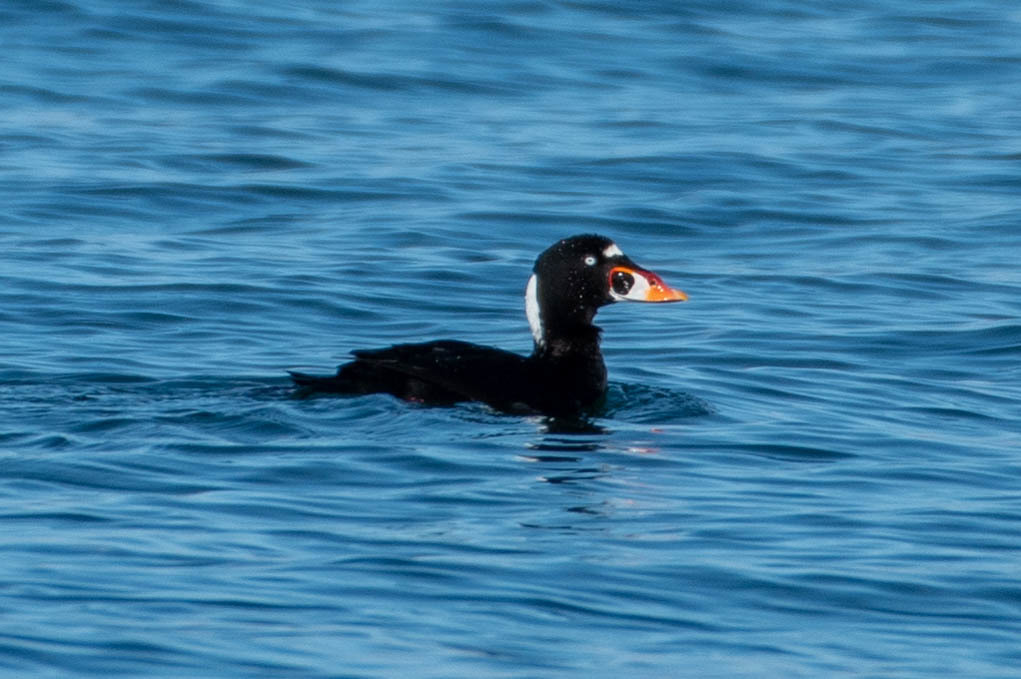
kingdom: Animalia
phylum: Chordata
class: Aves
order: Anseriformes
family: Anatidae
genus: Melanitta
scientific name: Melanitta perspicillata
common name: Surf scoter
